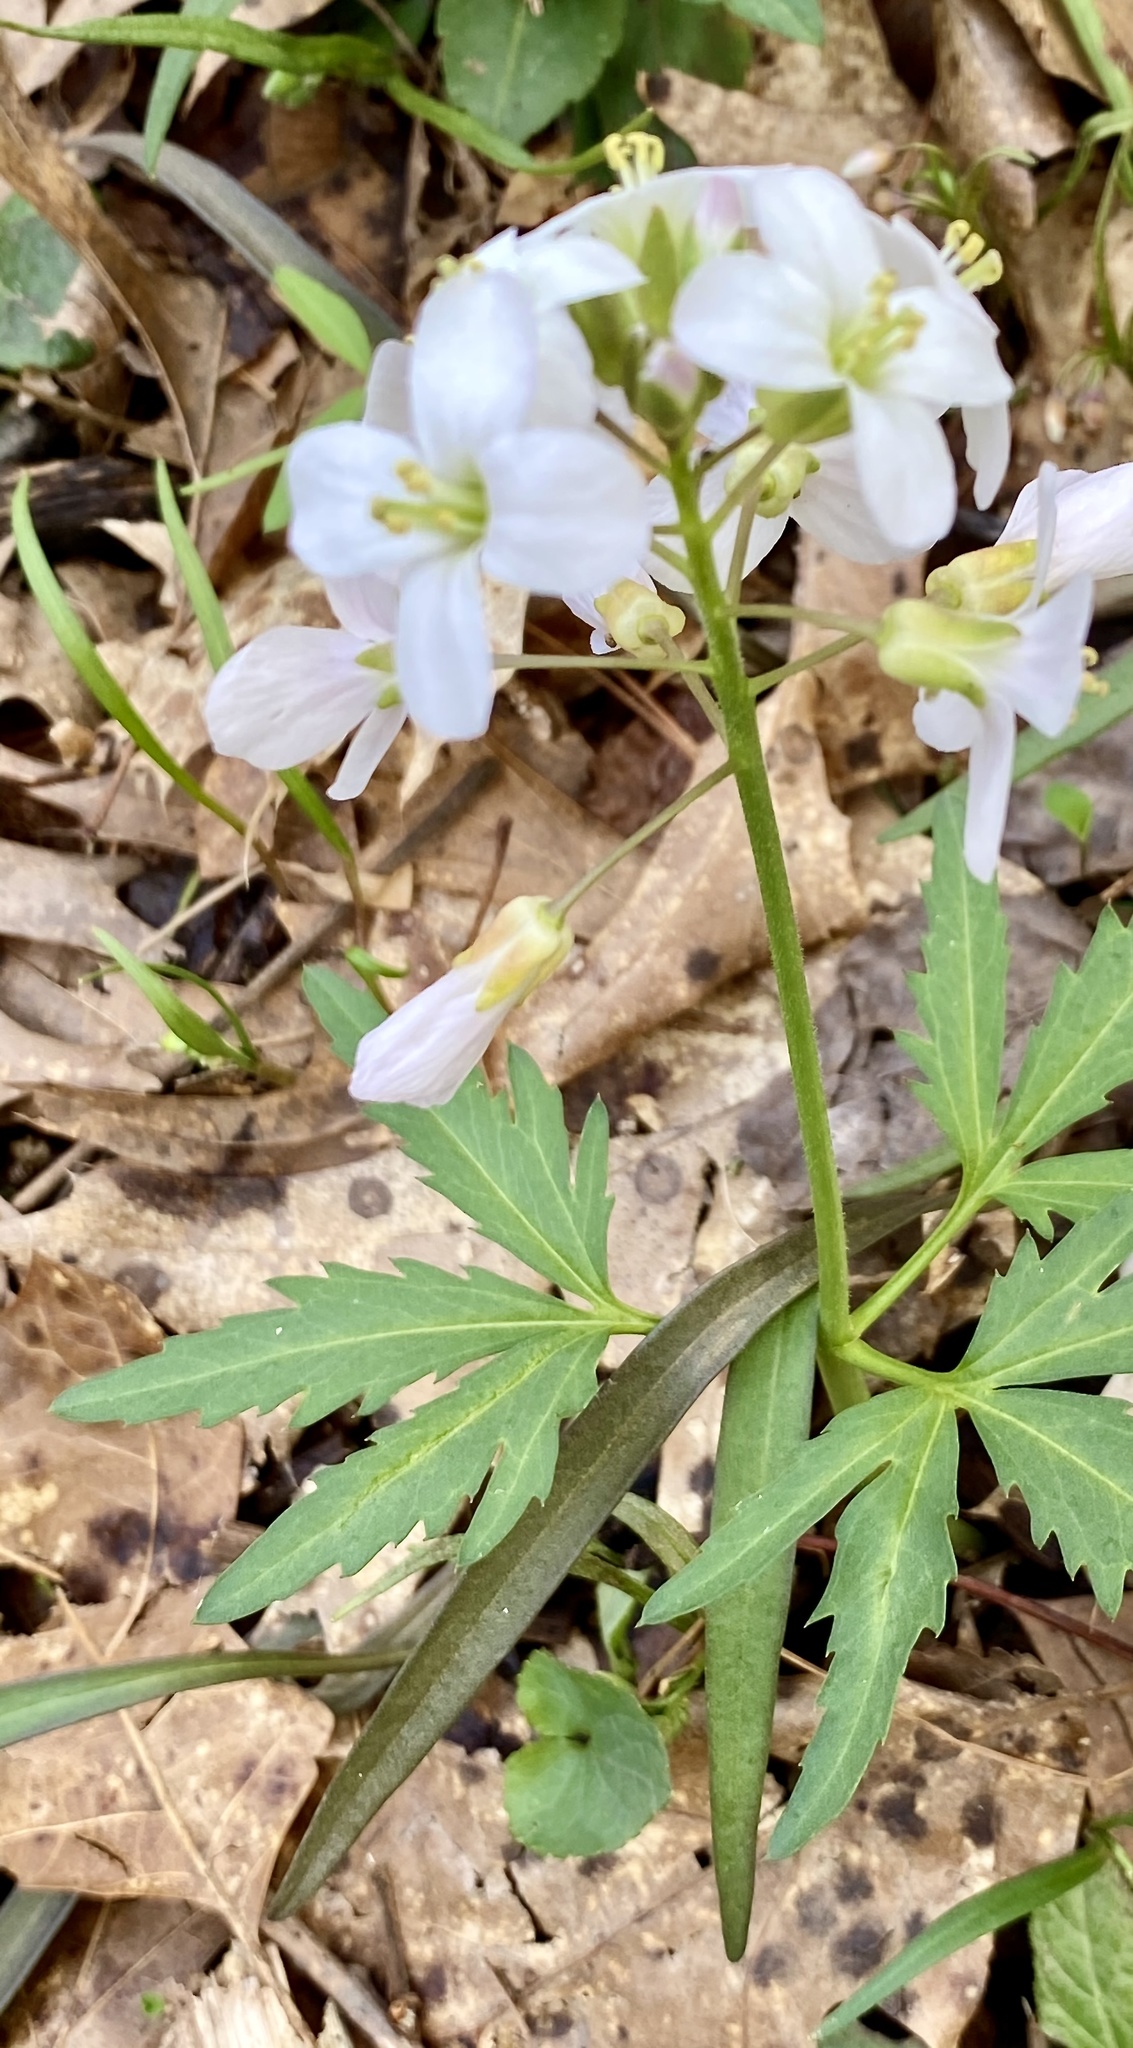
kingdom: Plantae
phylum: Tracheophyta
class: Magnoliopsida
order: Brassicales
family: Brassicaceae
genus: Cardamine
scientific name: Cardamine concatenata
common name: Cut-leaf toothcup
